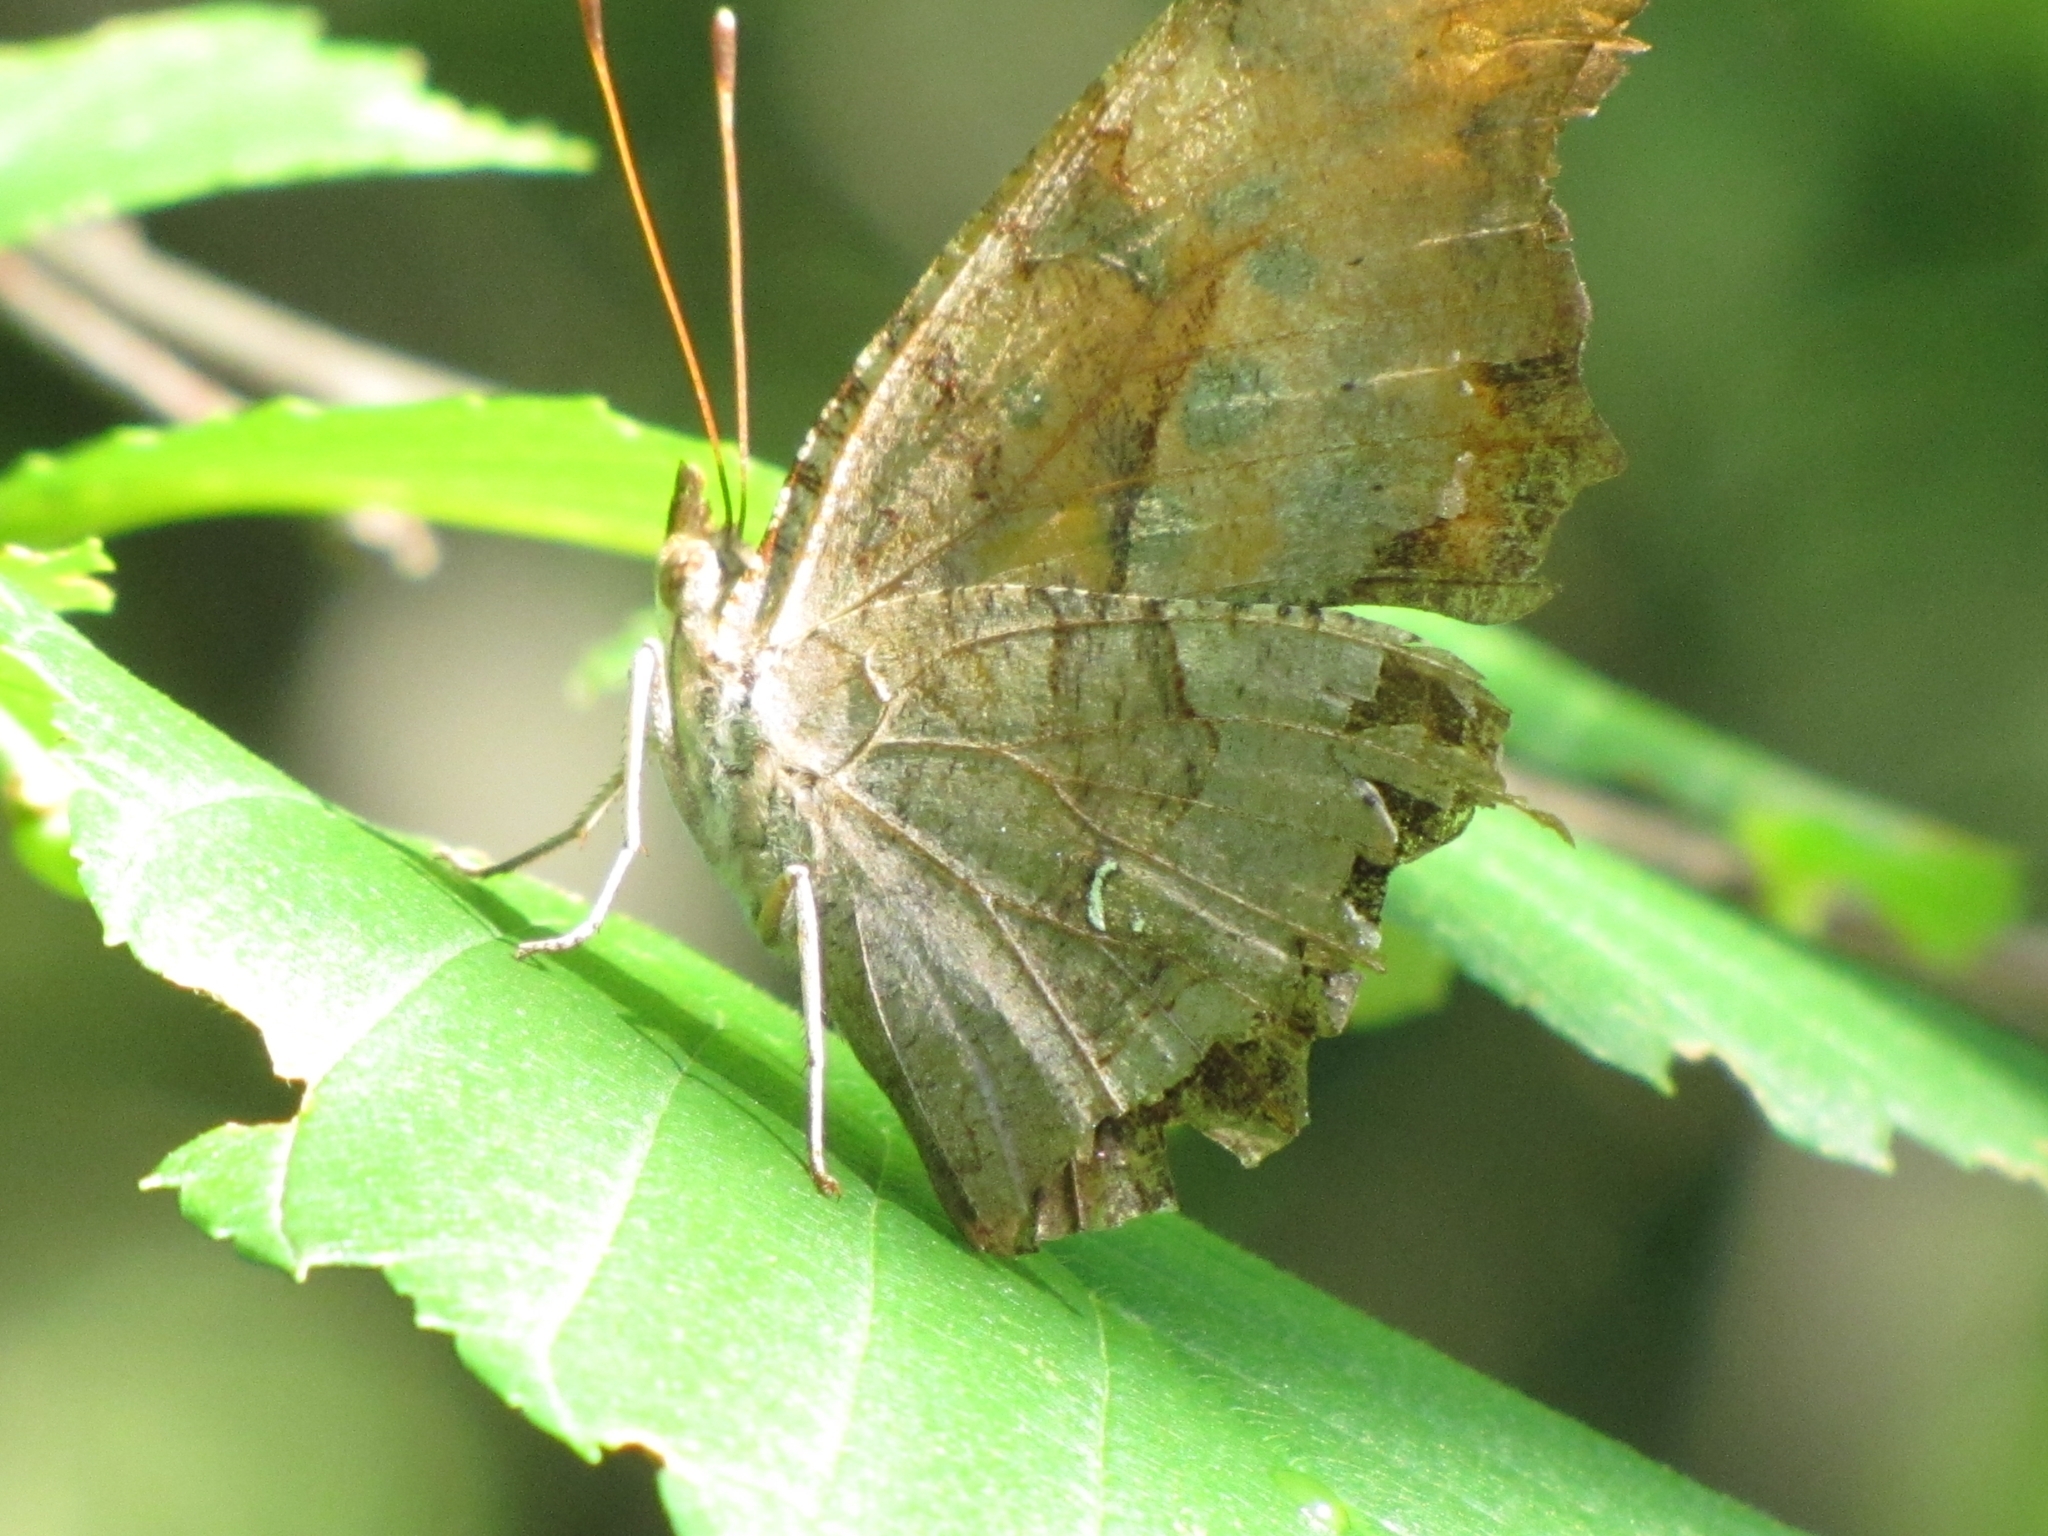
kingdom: Animalia
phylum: Arthropoda
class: Insecta
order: Lepidoptera
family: Nymphalidae
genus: Polygonia
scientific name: Polygonia interrogationis
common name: Question mark
